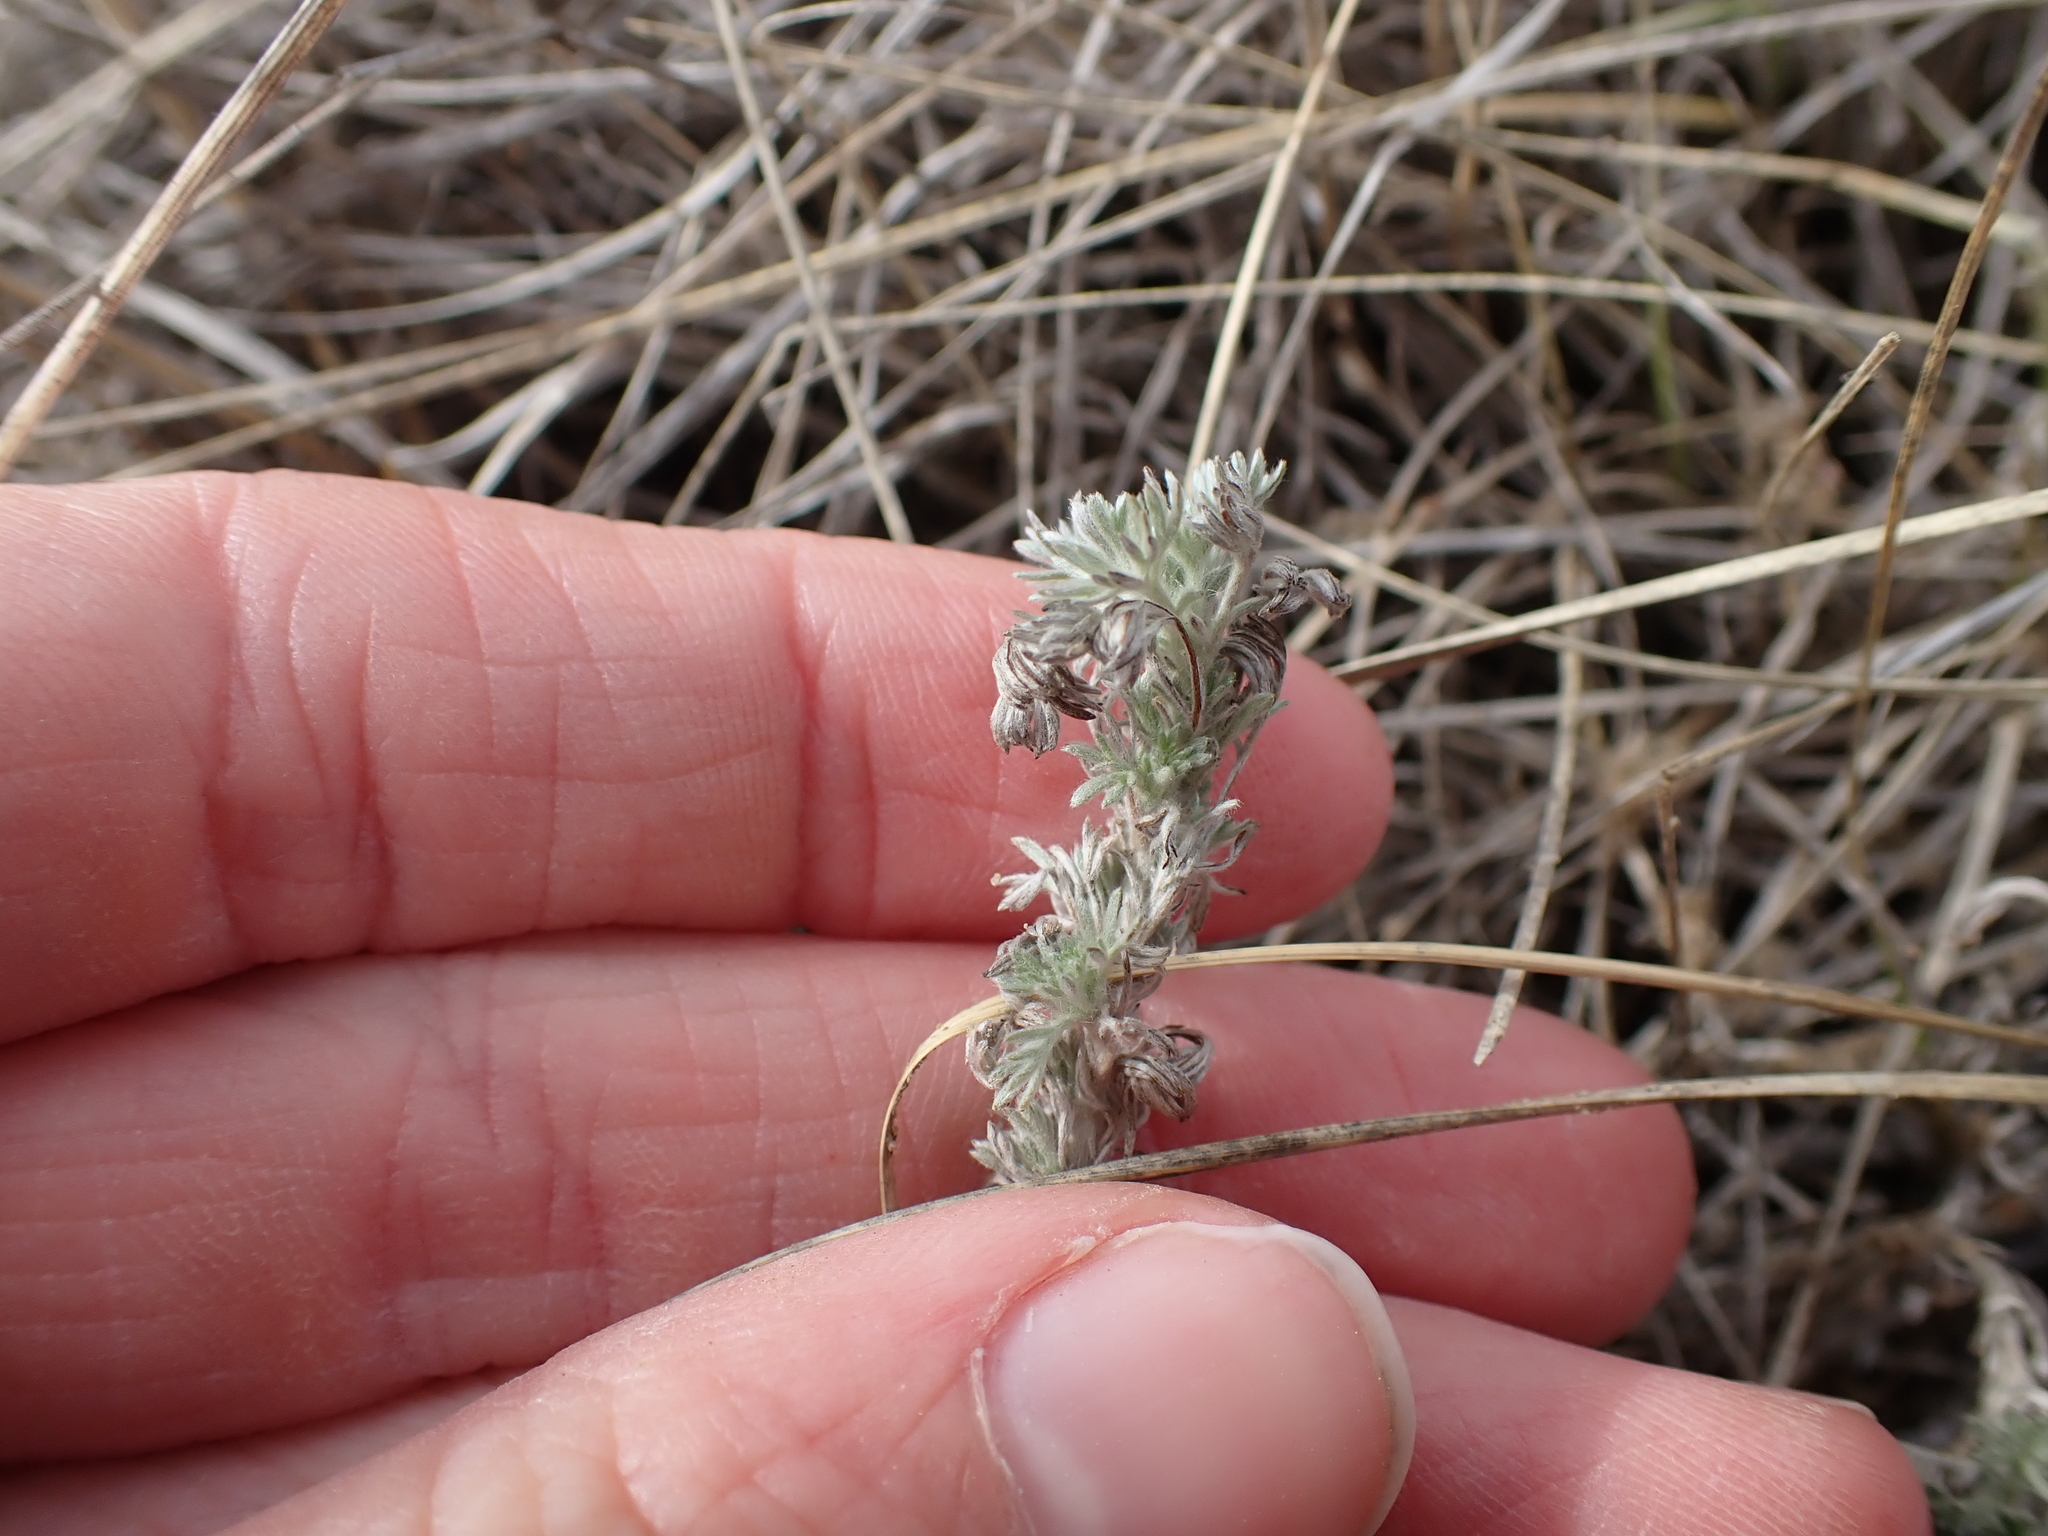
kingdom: Plantae
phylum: Tracheophyta
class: Magnoliopsida
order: Asterales
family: Asteraceae
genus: Artemisia
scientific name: Artemisia frigida
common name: Prairie sagewort
